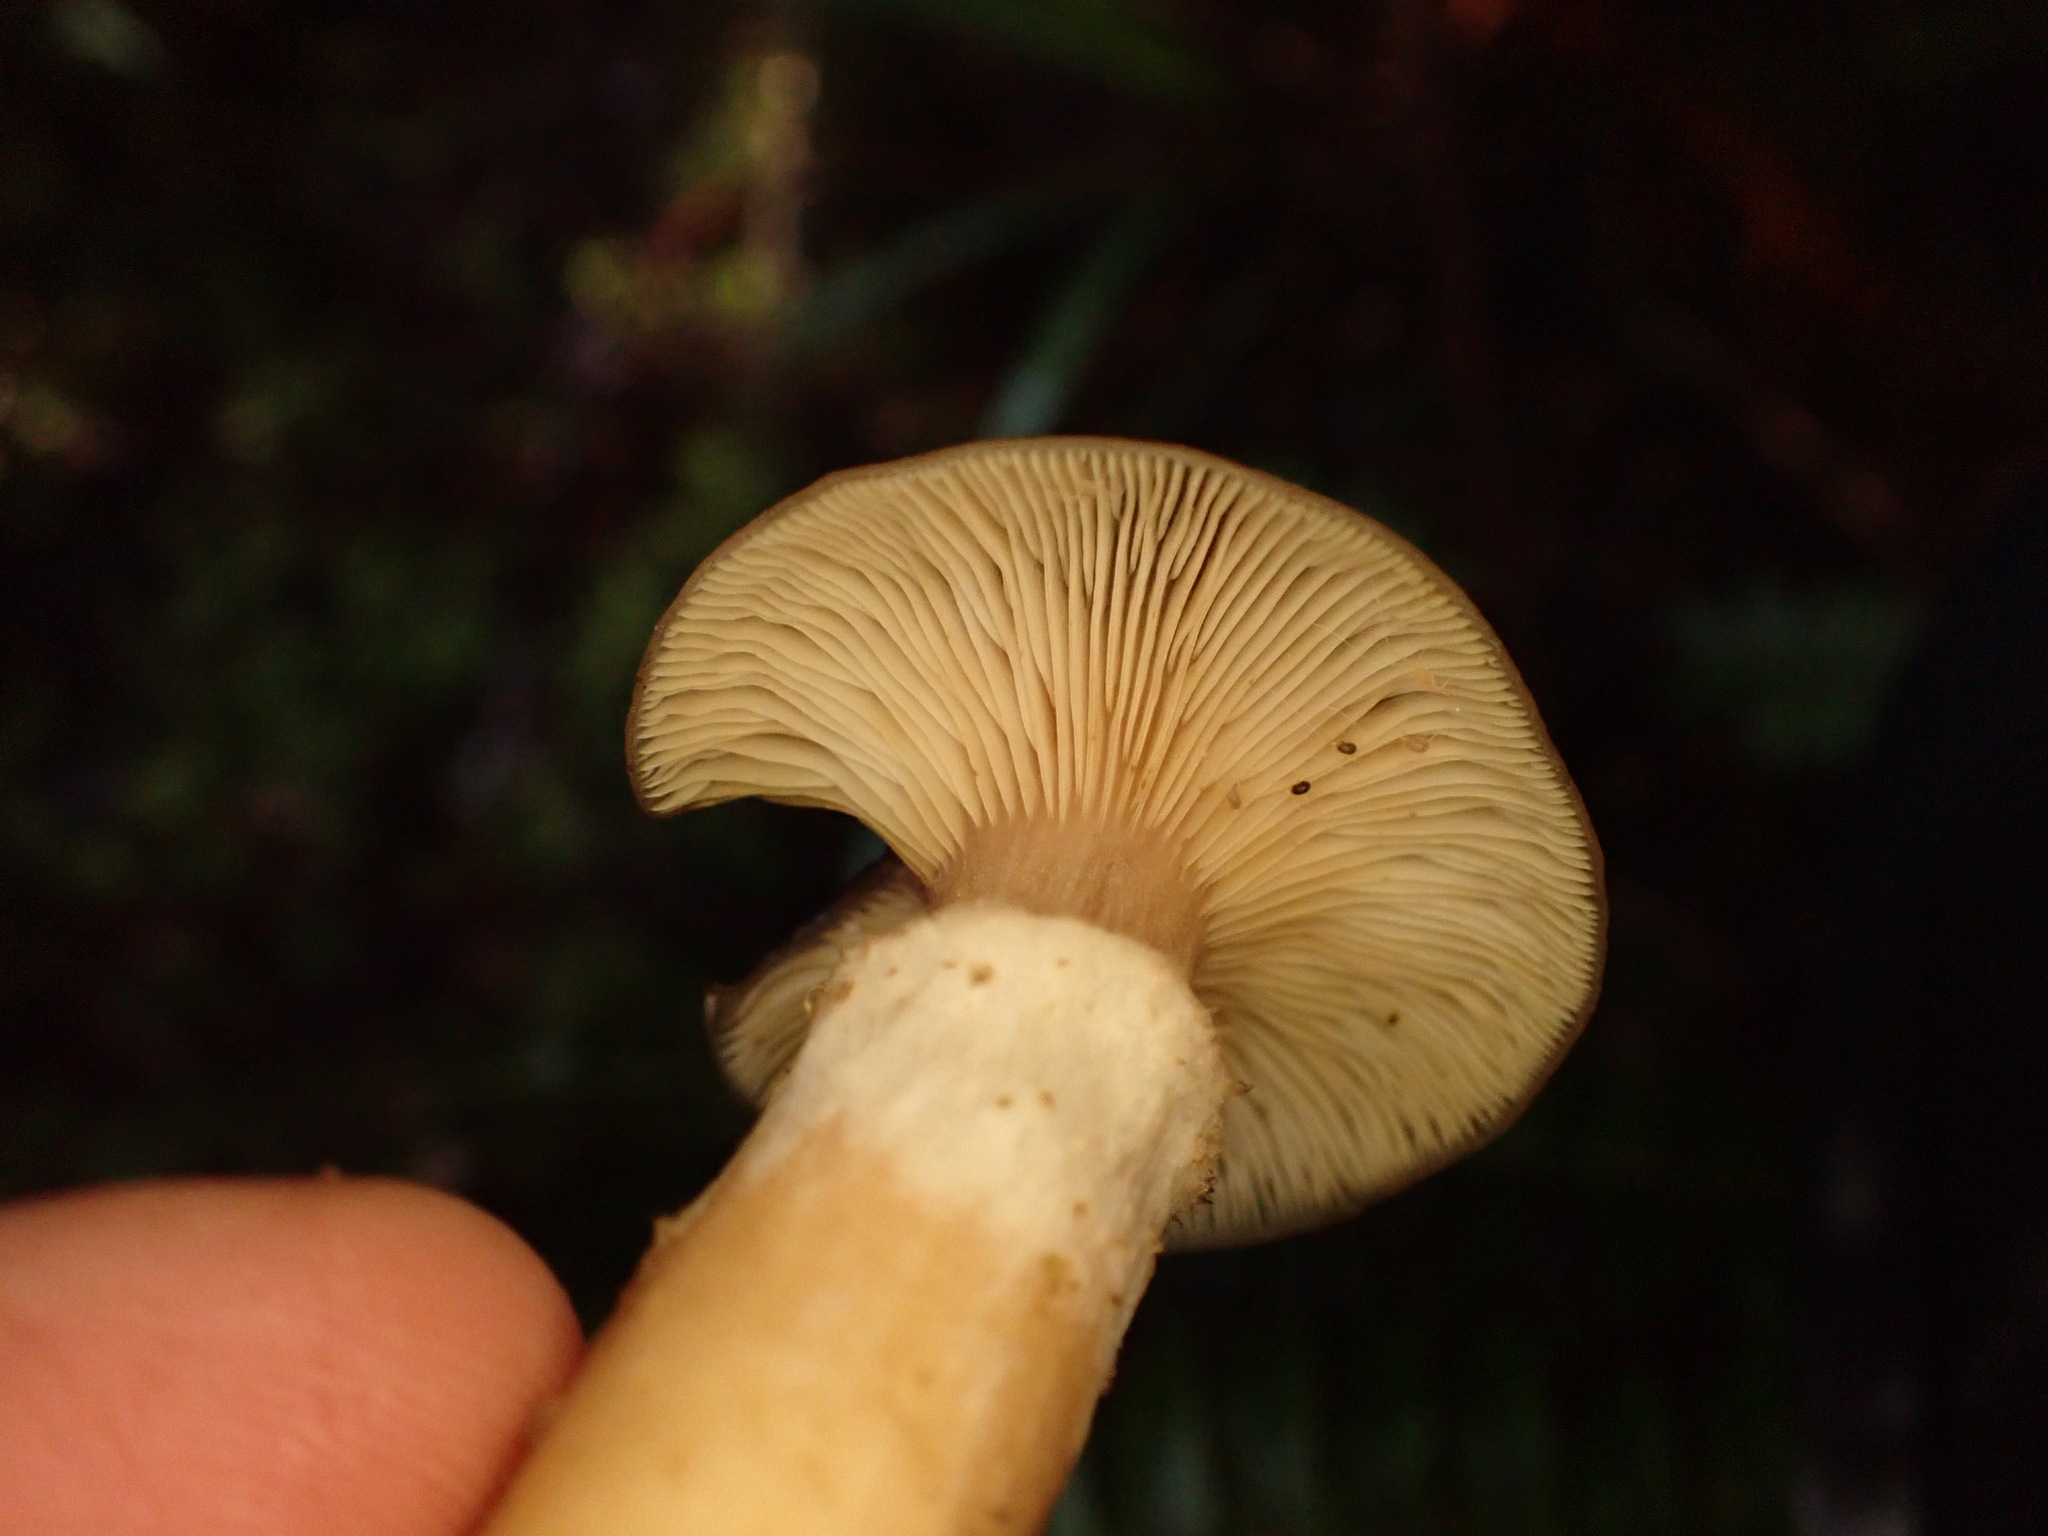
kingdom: Fungi
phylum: Basidiomycota
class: Agaricomycetes
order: Agaricales
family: Physalacriaceae
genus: Armillaria
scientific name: Armillaria novae-zelandiae
